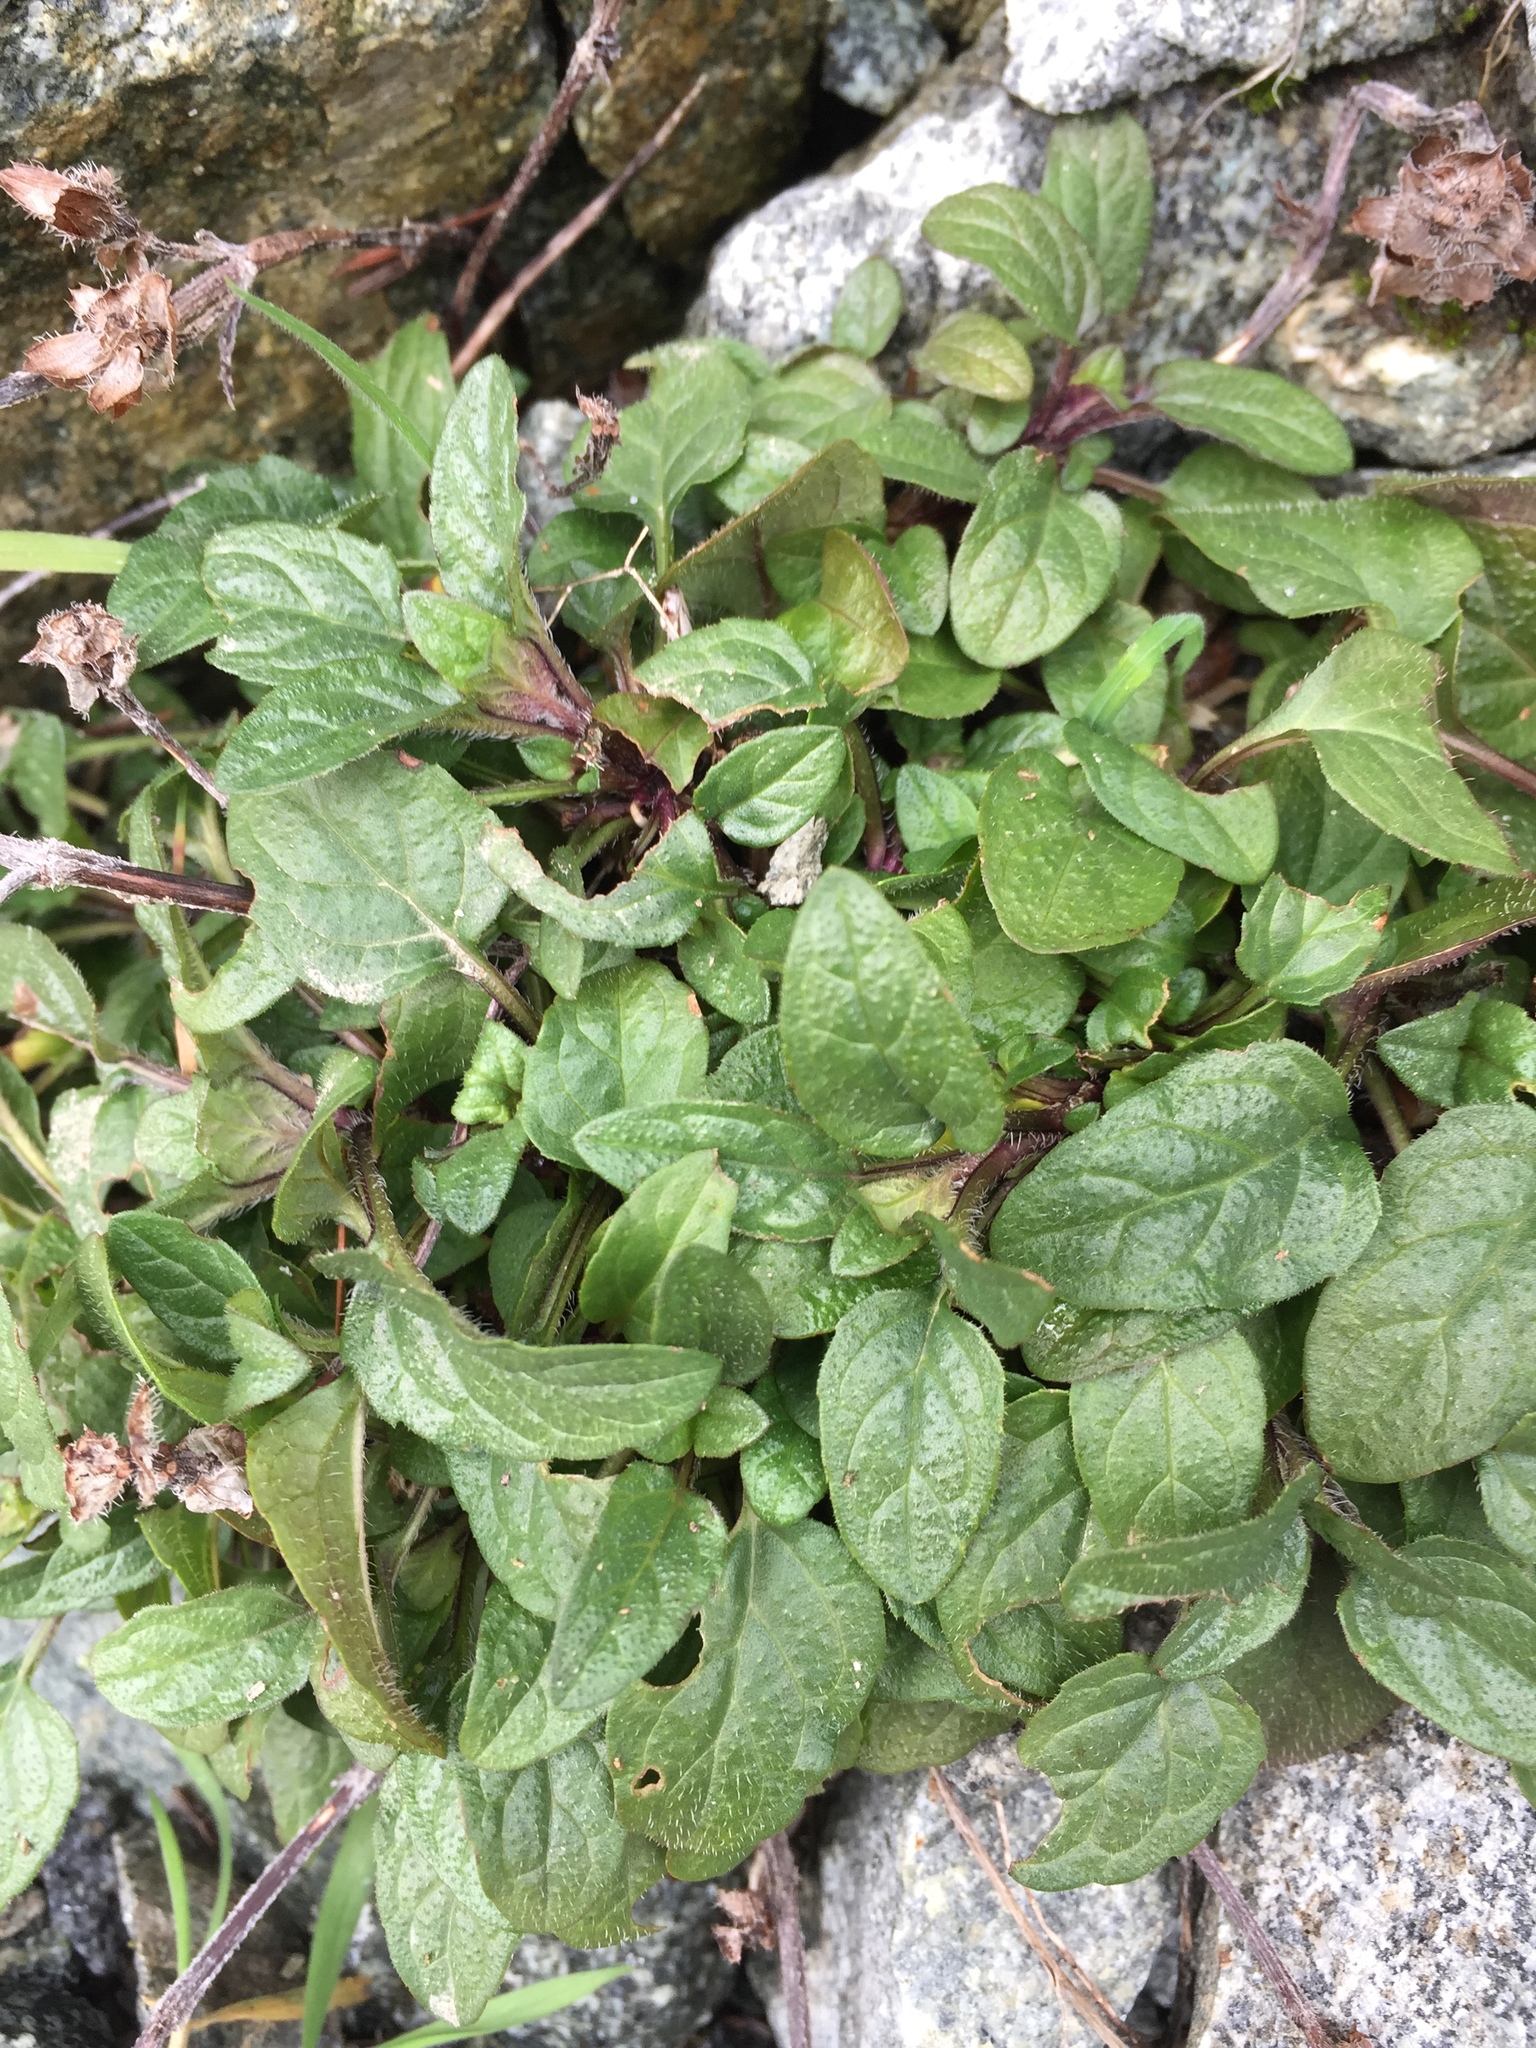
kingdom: Plantae
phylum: Tracheophyta
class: Magnoliopsida
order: Lamiales
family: Lamiaceae
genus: Prunella
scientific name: Prunella vulgaris
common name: Heal-all
